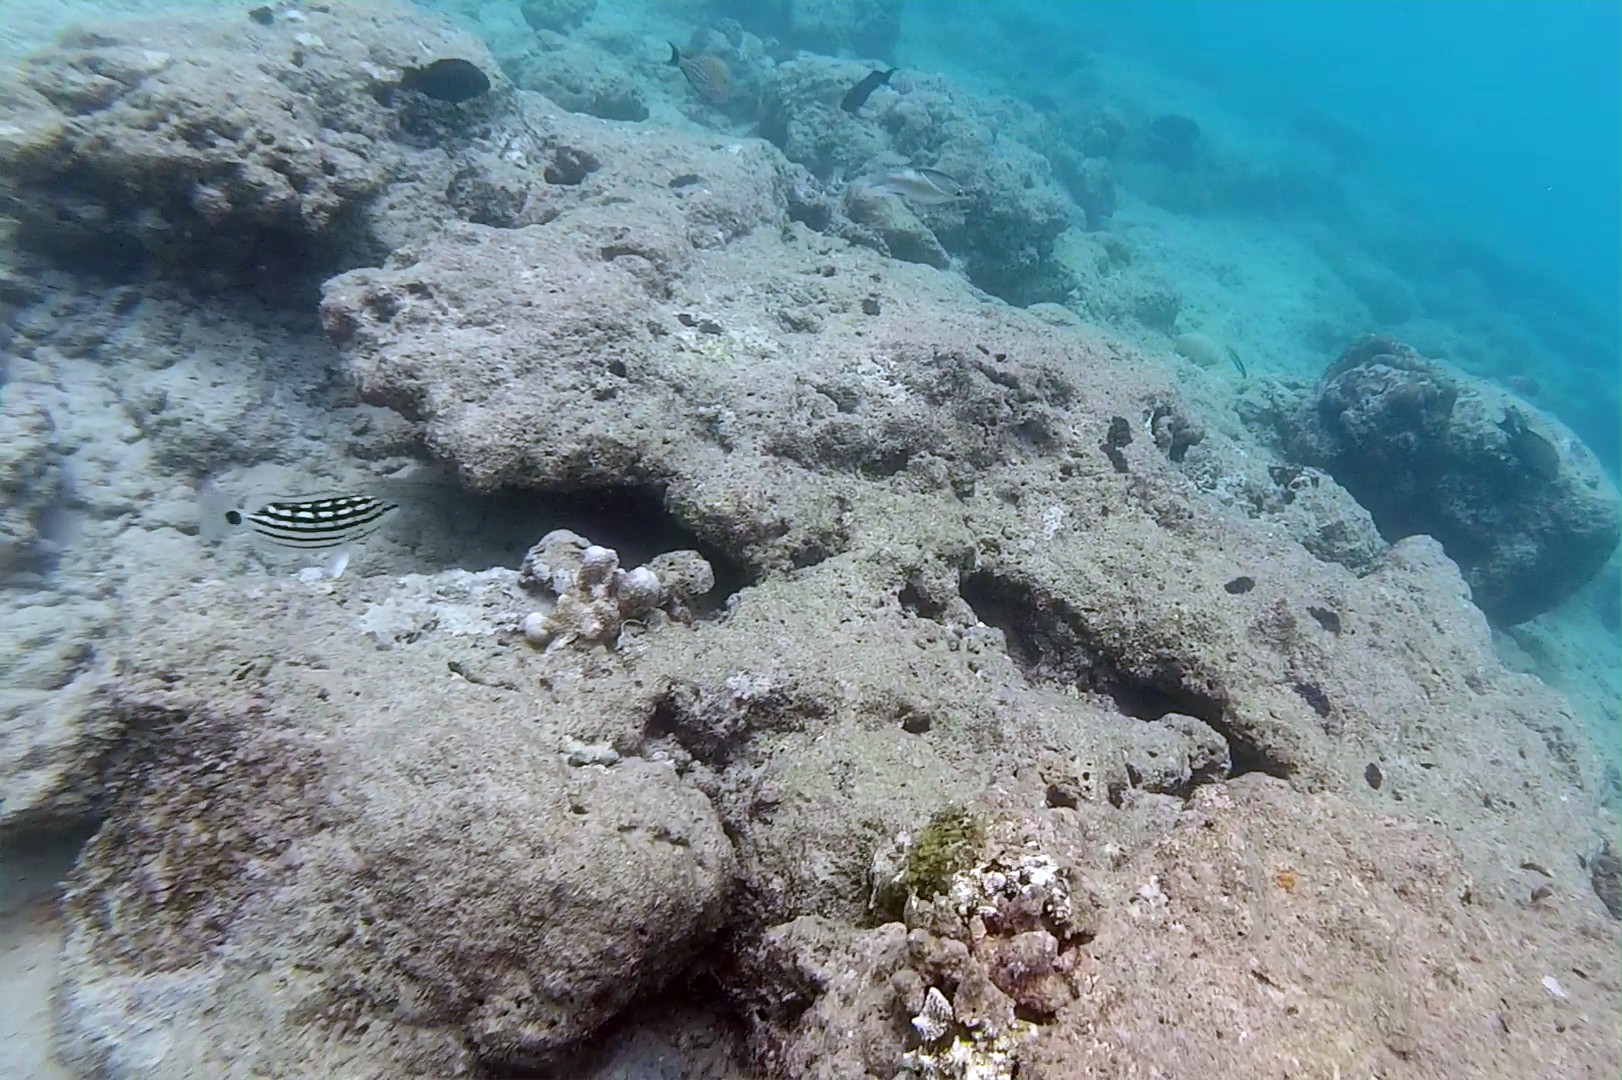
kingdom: Animalia
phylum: Chordata
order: Perciformes
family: Lutjanidae
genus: Lutjanus
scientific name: Lutjanus decussatus
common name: Checkered snapper
